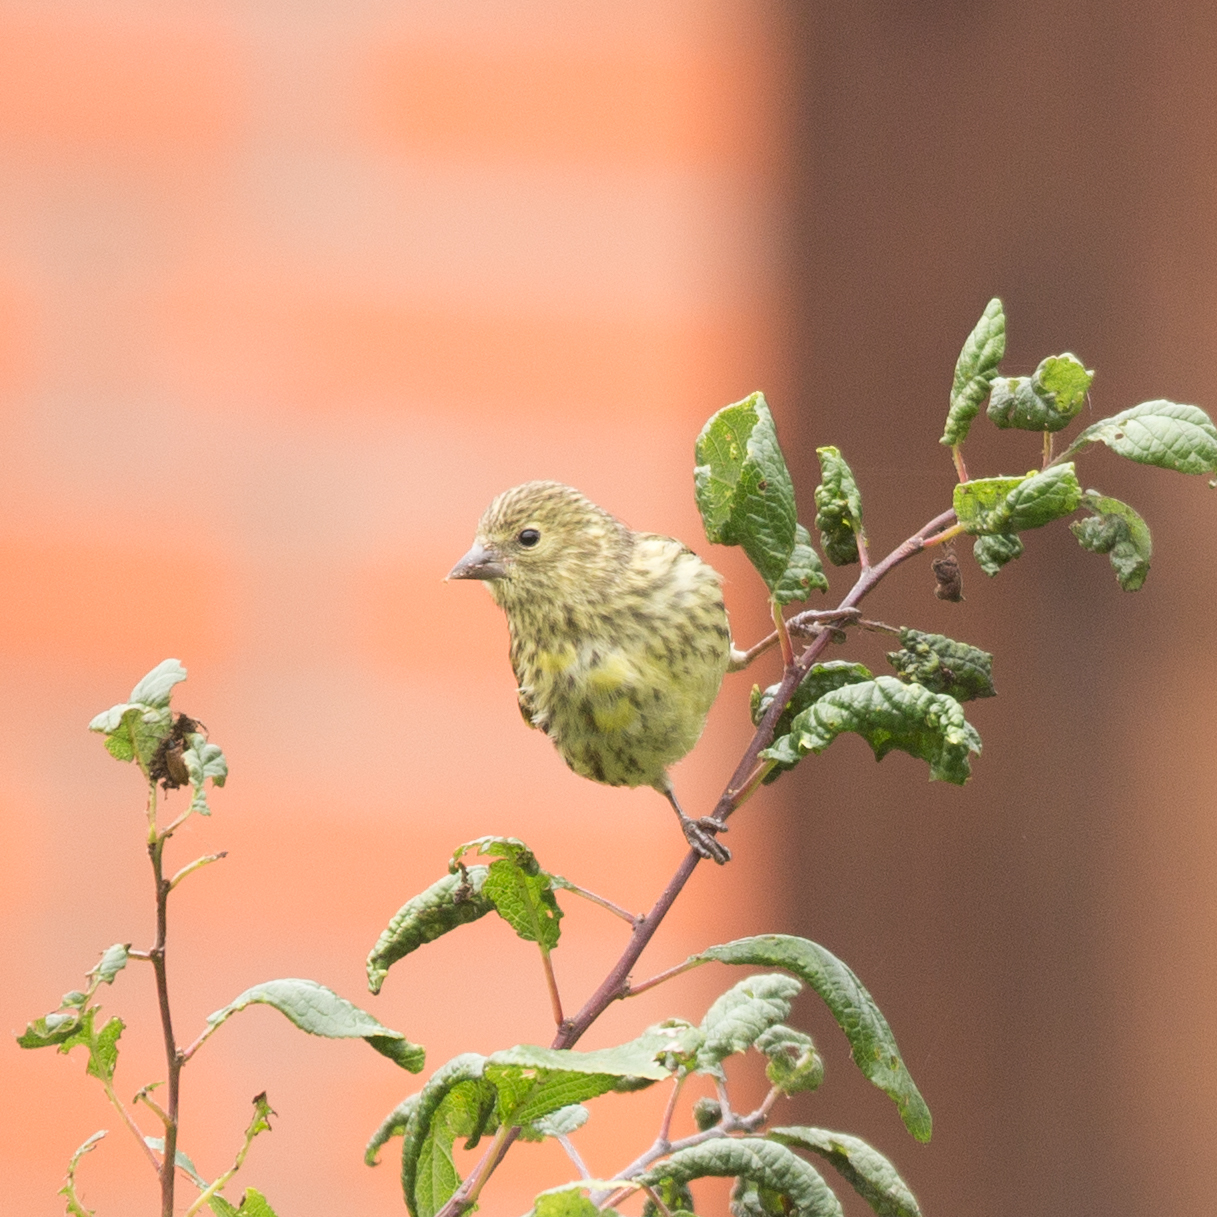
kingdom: Animalia
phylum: Chordata
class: Aves
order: Passeriformes
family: Fringillidae
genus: Spinus
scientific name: Spinus spinus
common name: Eurasian siskin
